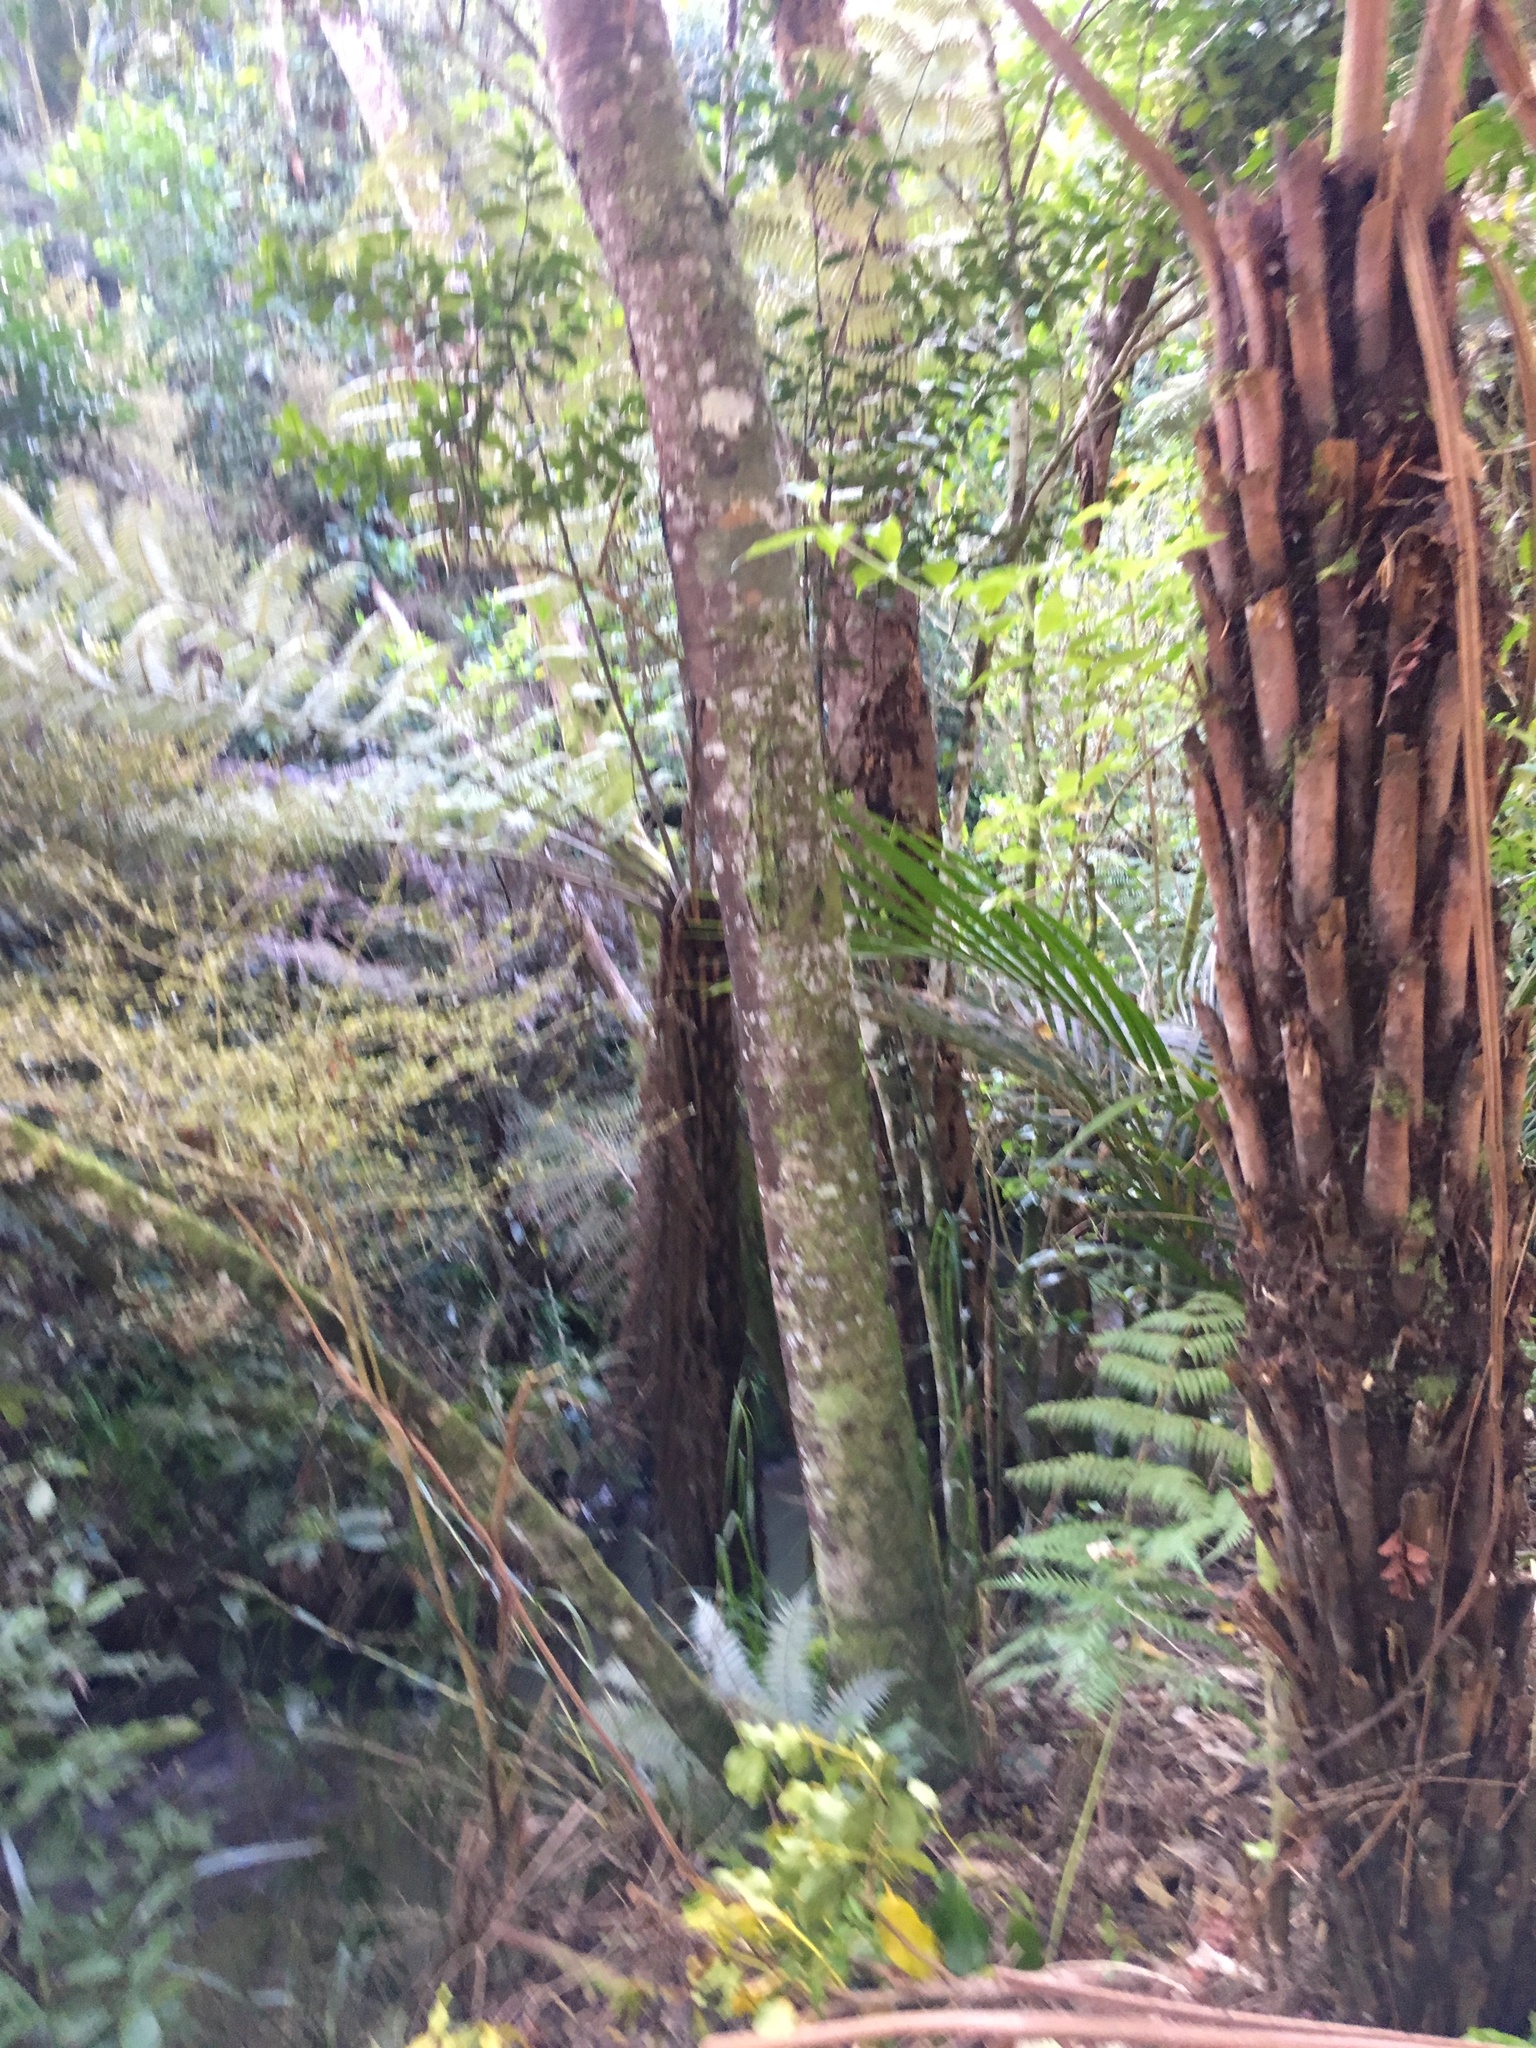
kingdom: Plantae
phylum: Tracheophyta
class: Polypodiopsida
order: Cyatheales
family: Cyatheaceae
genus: Alsophila
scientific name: Alsophila dealbata
